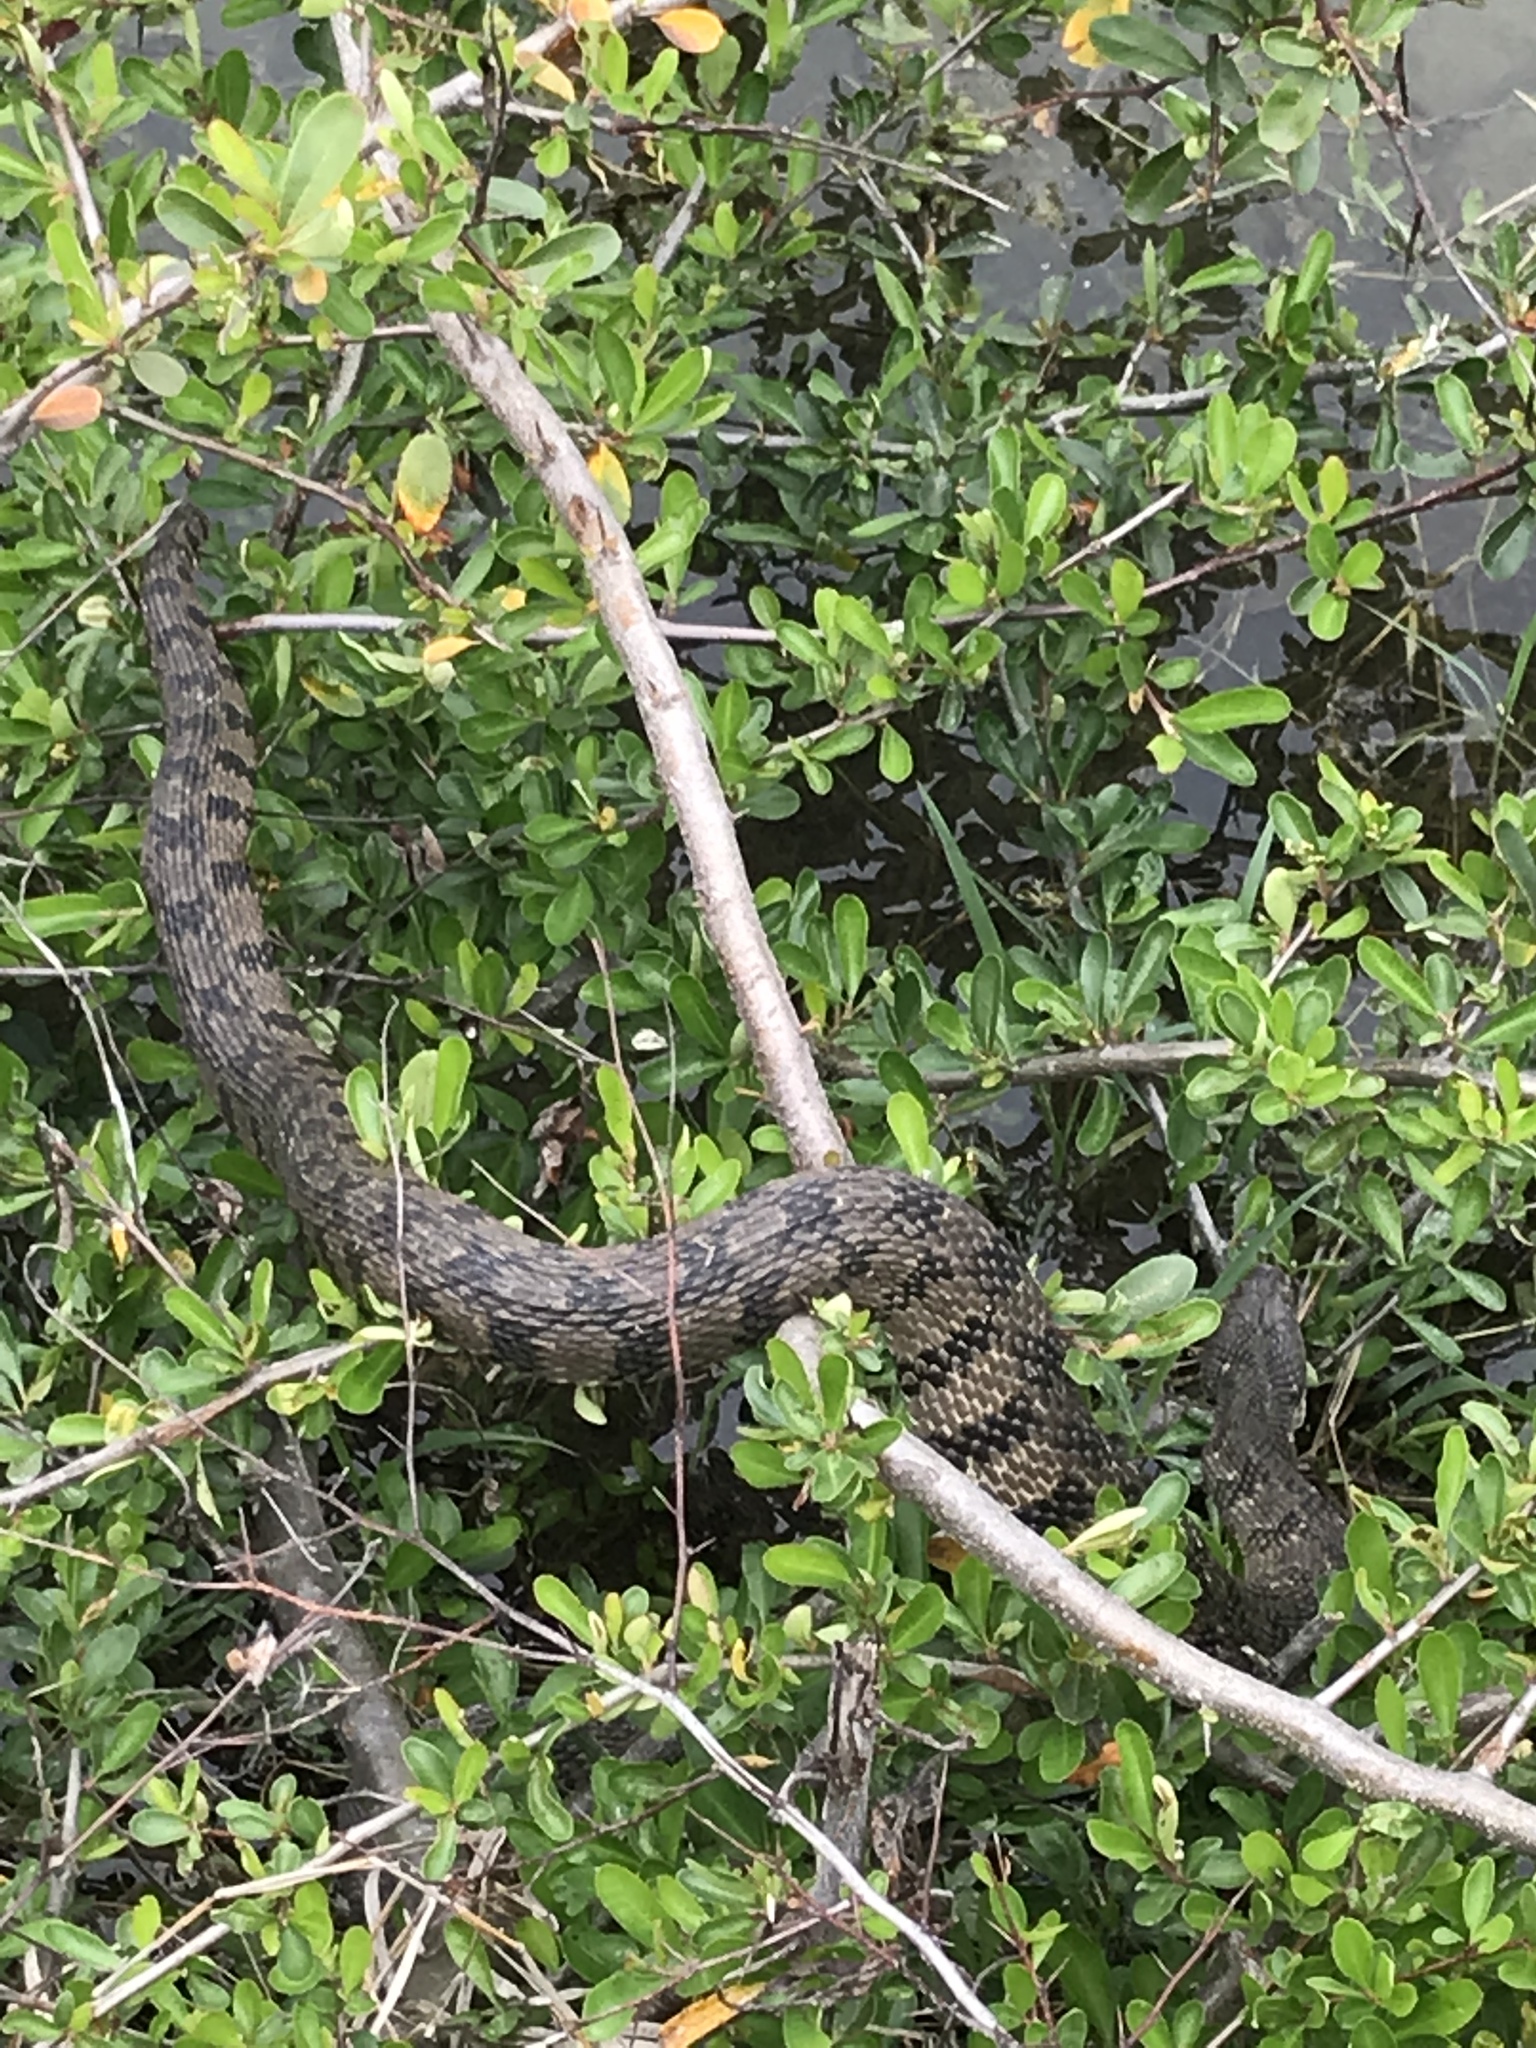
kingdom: Animalia
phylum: Chordata
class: Squamata
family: Colubridae
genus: Nerodia
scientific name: Nerodia rhombifer
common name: Diamondback water snake
